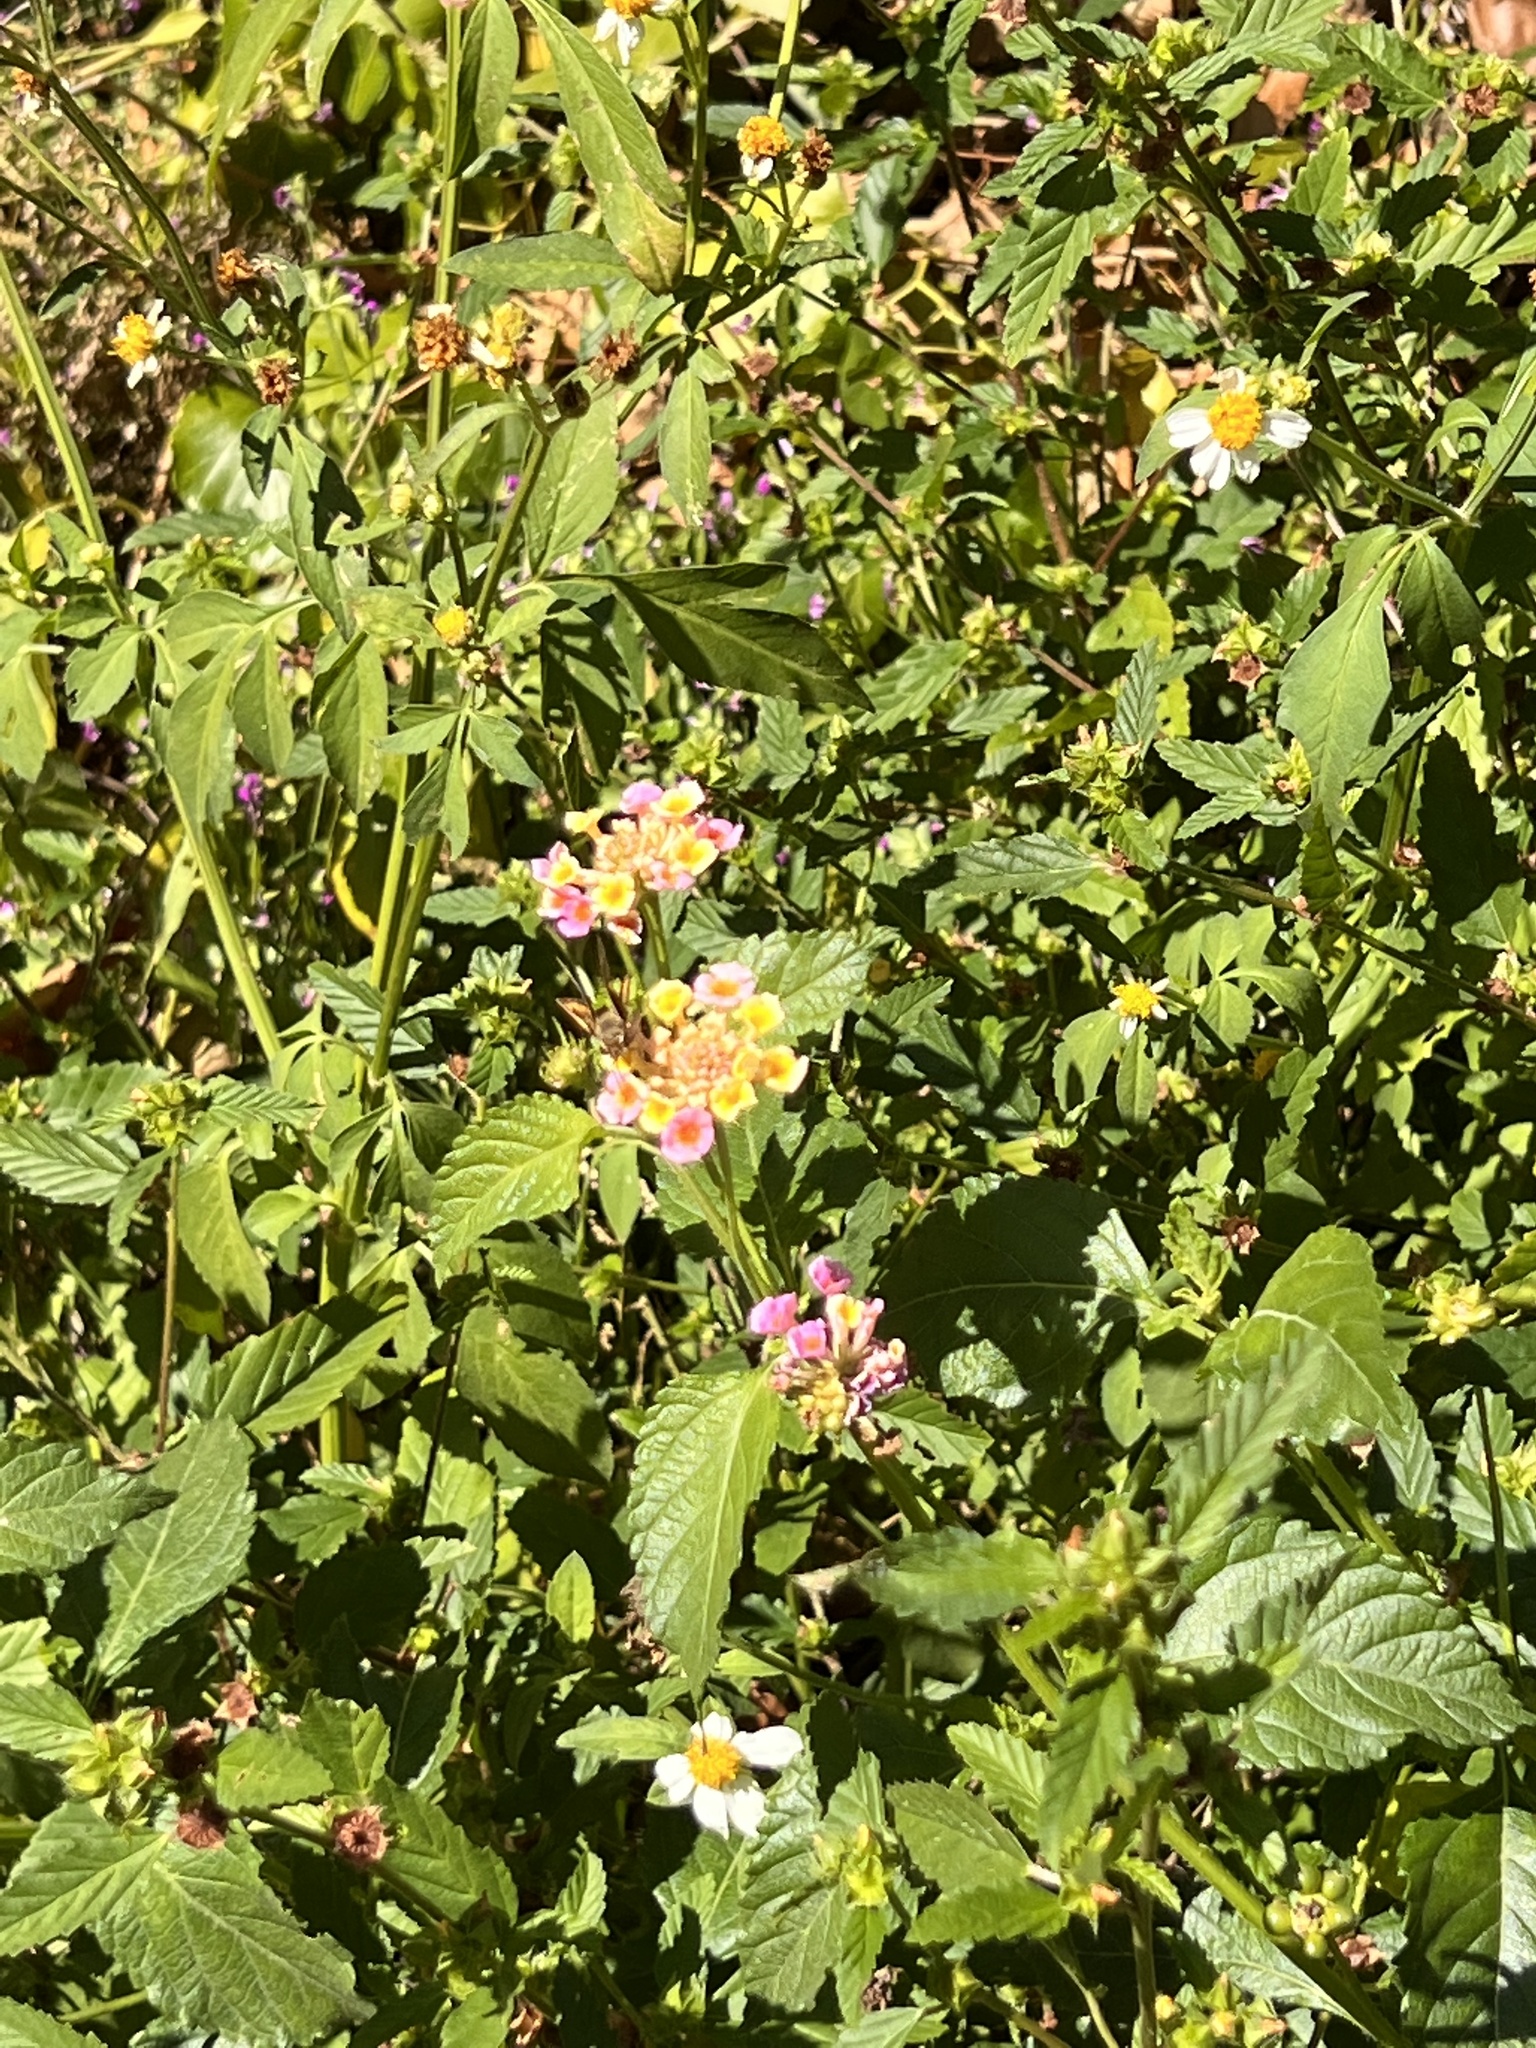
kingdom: Animalia
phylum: Arthropoda
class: Insecta
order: Lepidoptera
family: Hesperiidae
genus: Hylephila
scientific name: Hylephila phyleus
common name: Fiery skipper
